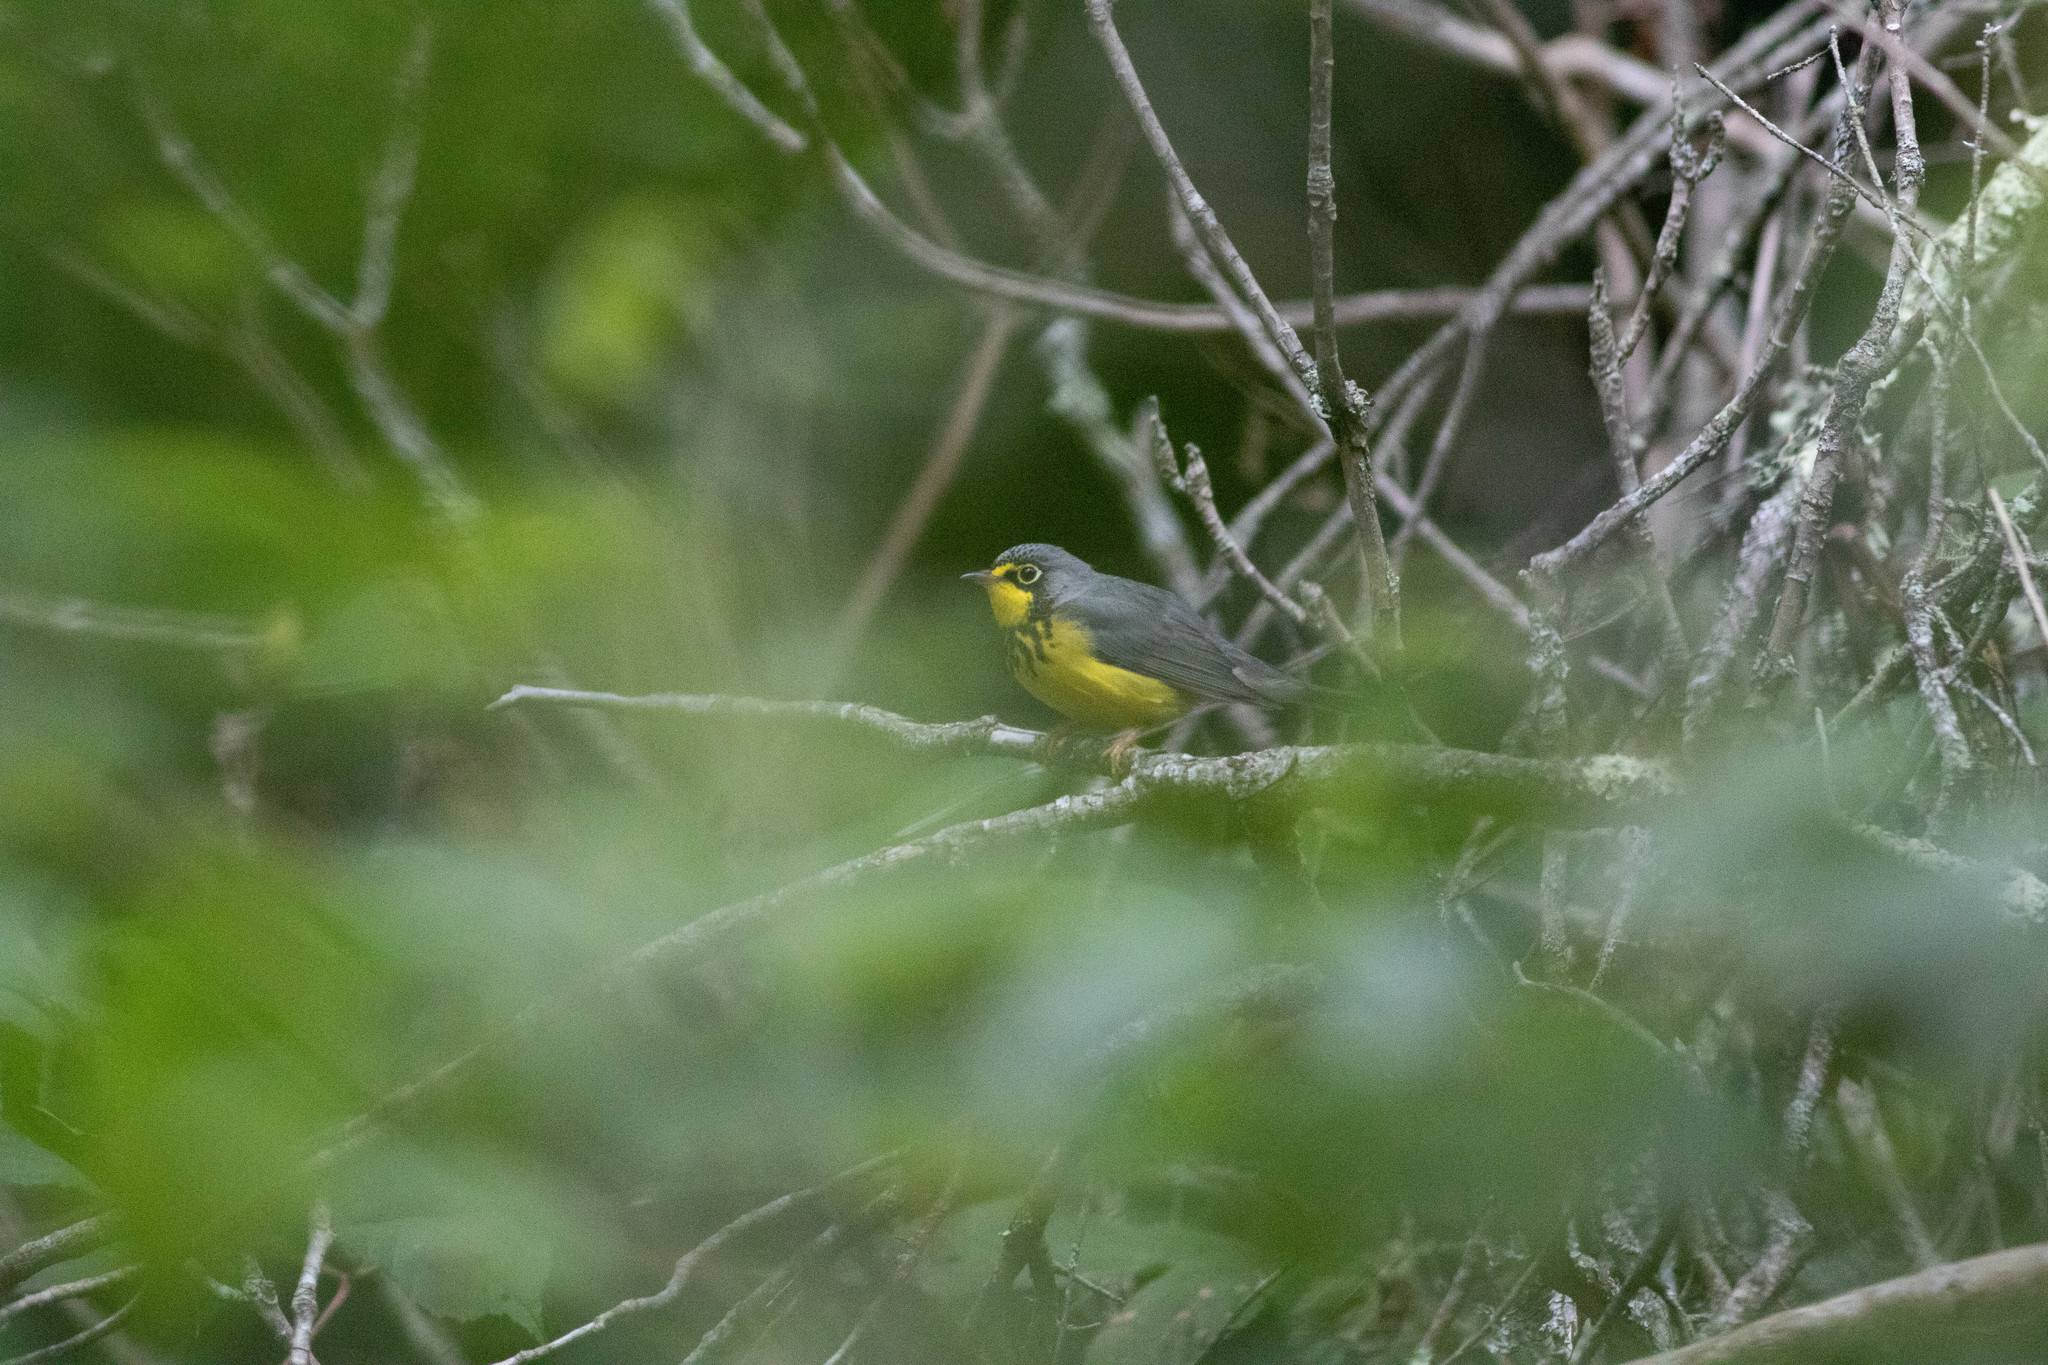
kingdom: Animalia
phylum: Chordata
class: Aves
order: Passeriformes
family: Parulidae
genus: Cardellina
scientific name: Cardellina canadensis
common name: Canada warbler
